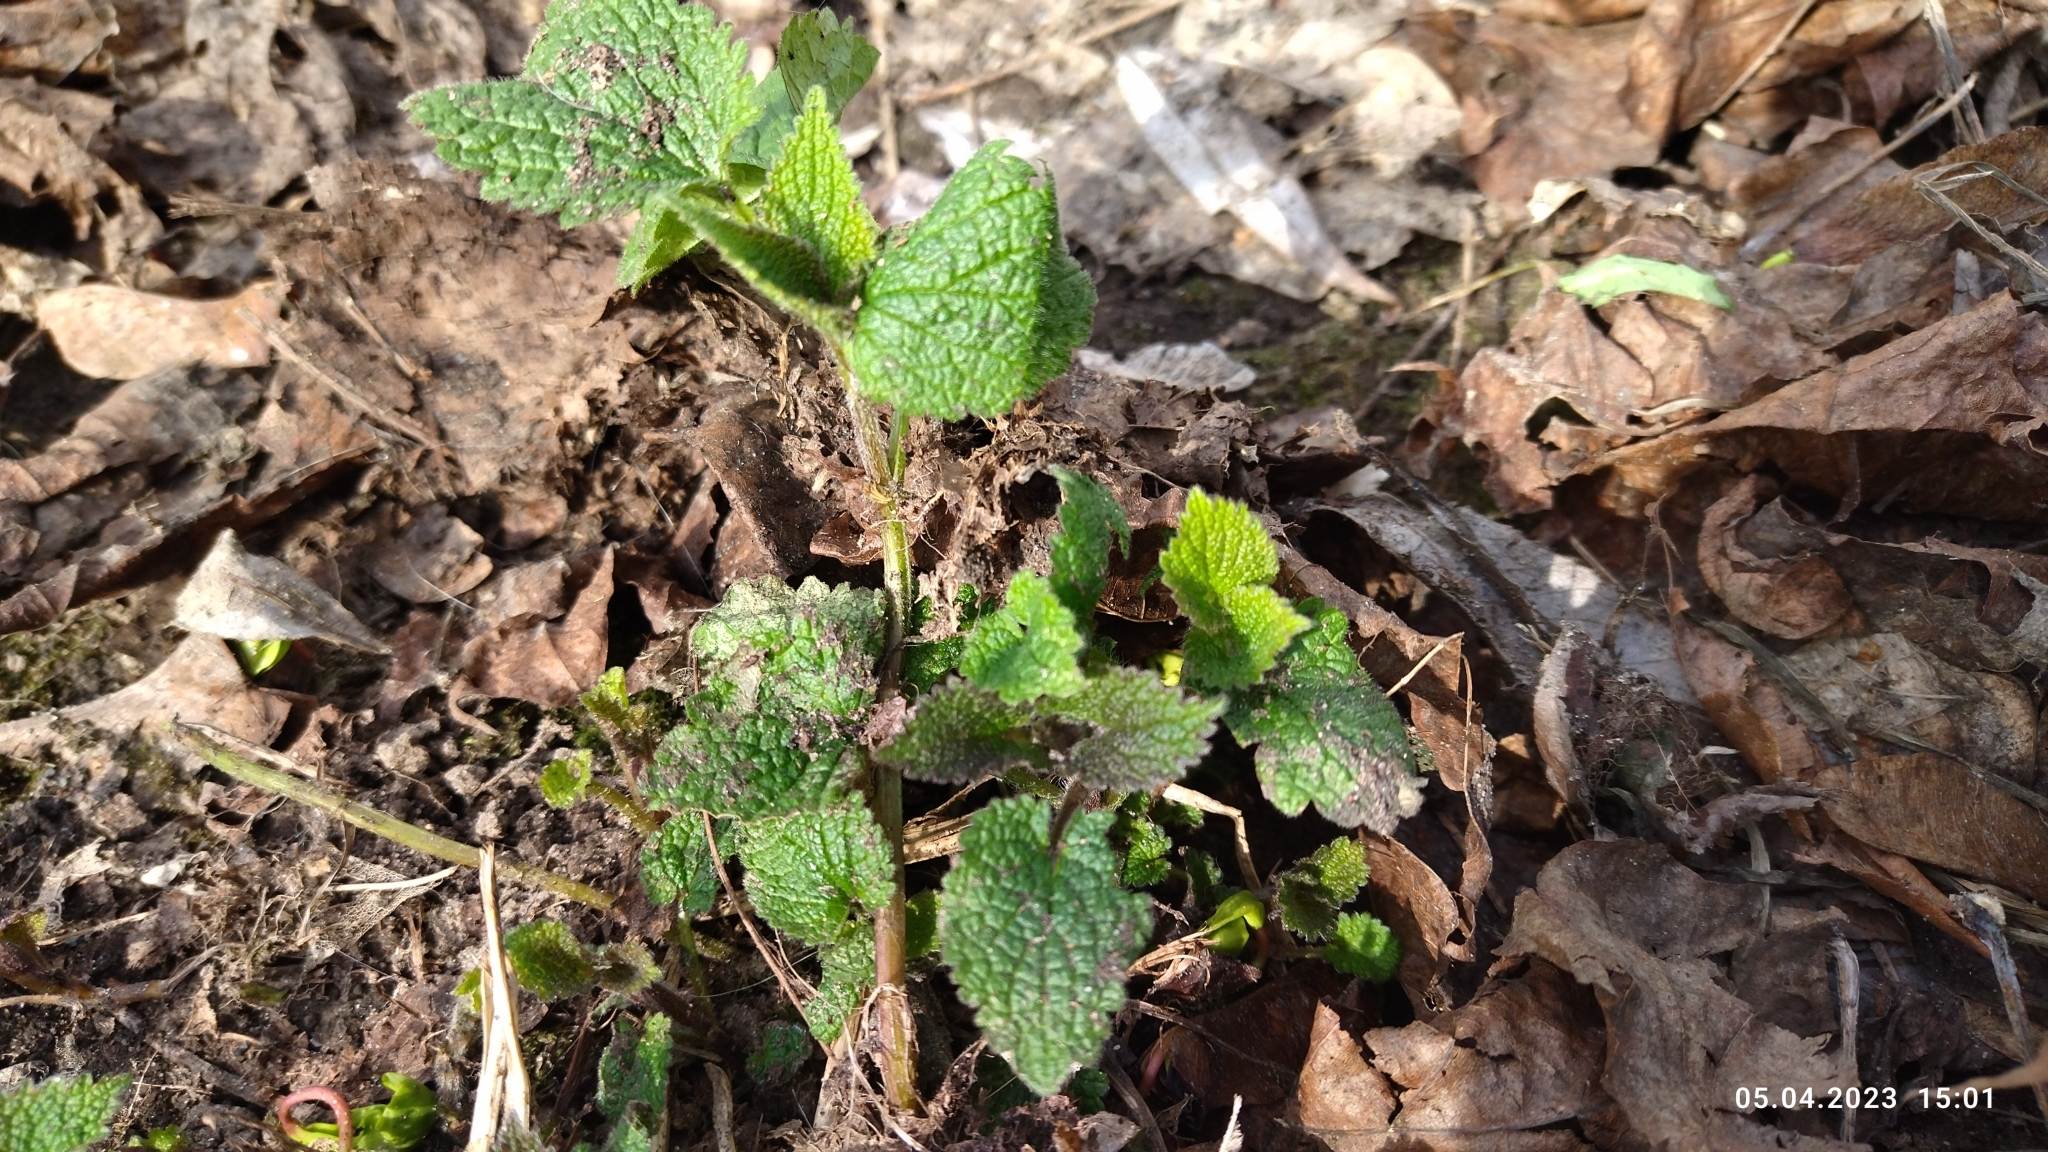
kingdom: Plantae
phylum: Tracheophyta
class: Magnoliopsida
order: Lamiales
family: Lamiaceae
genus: Lamium
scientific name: Lamium album
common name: White dead-nettle
